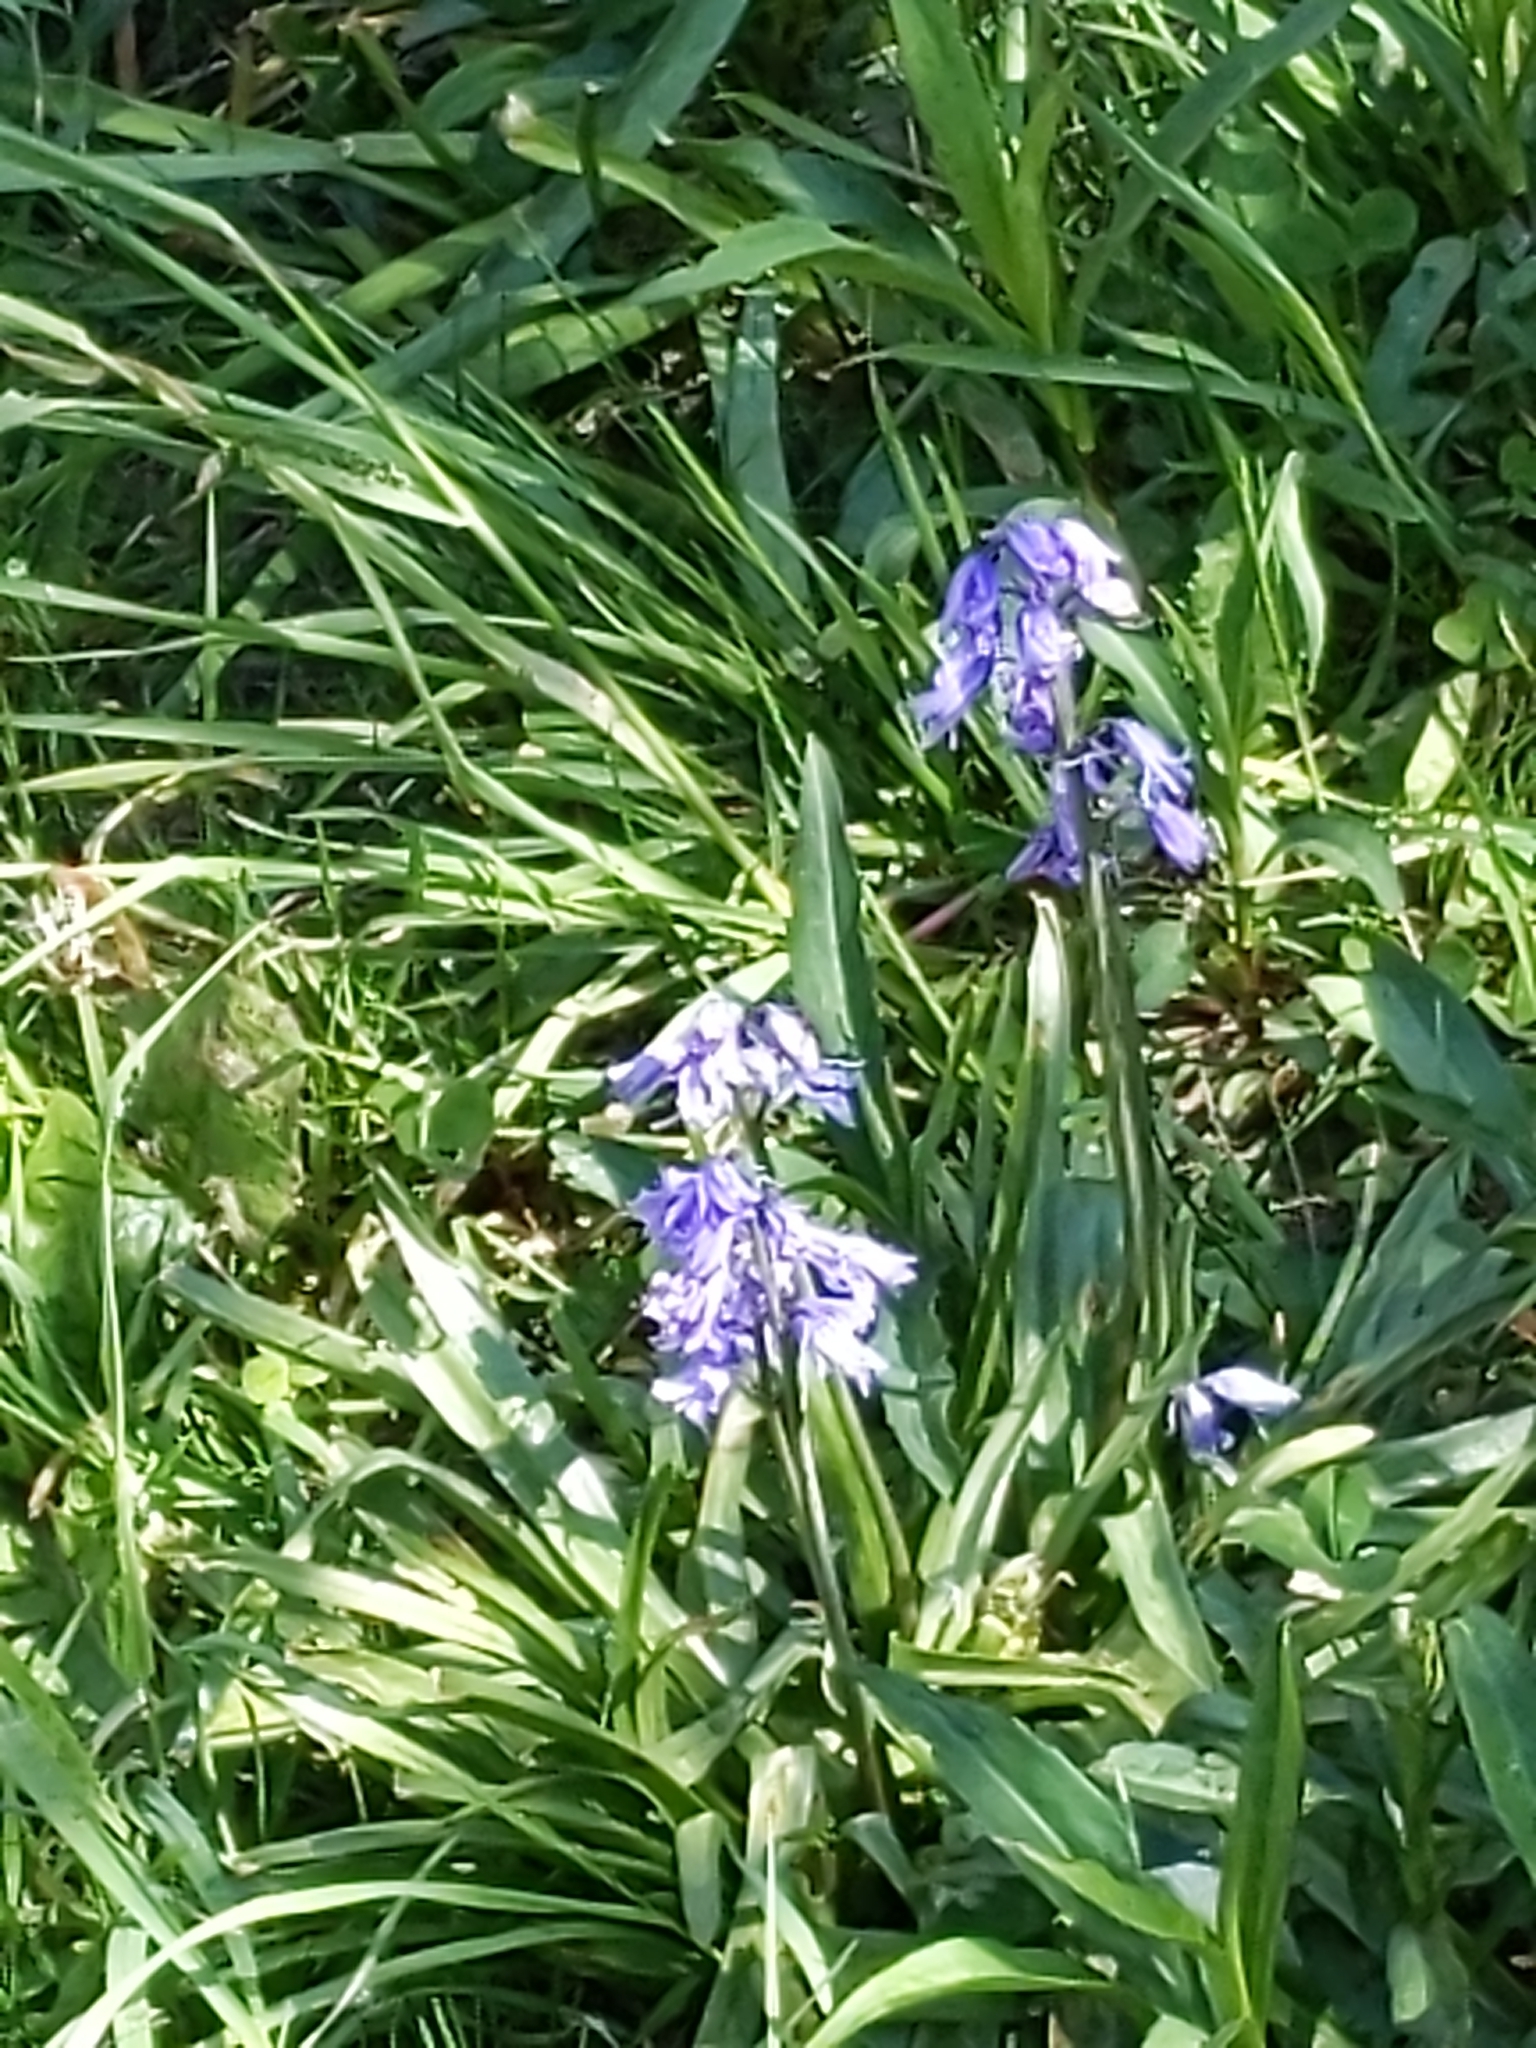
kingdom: Plantae
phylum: Tracheophyta
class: Liliopsida
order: Asparagales
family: Asparagaceae
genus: Hyacinthoides
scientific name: Hyacinthoides massartiana
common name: Hyacinthoides
